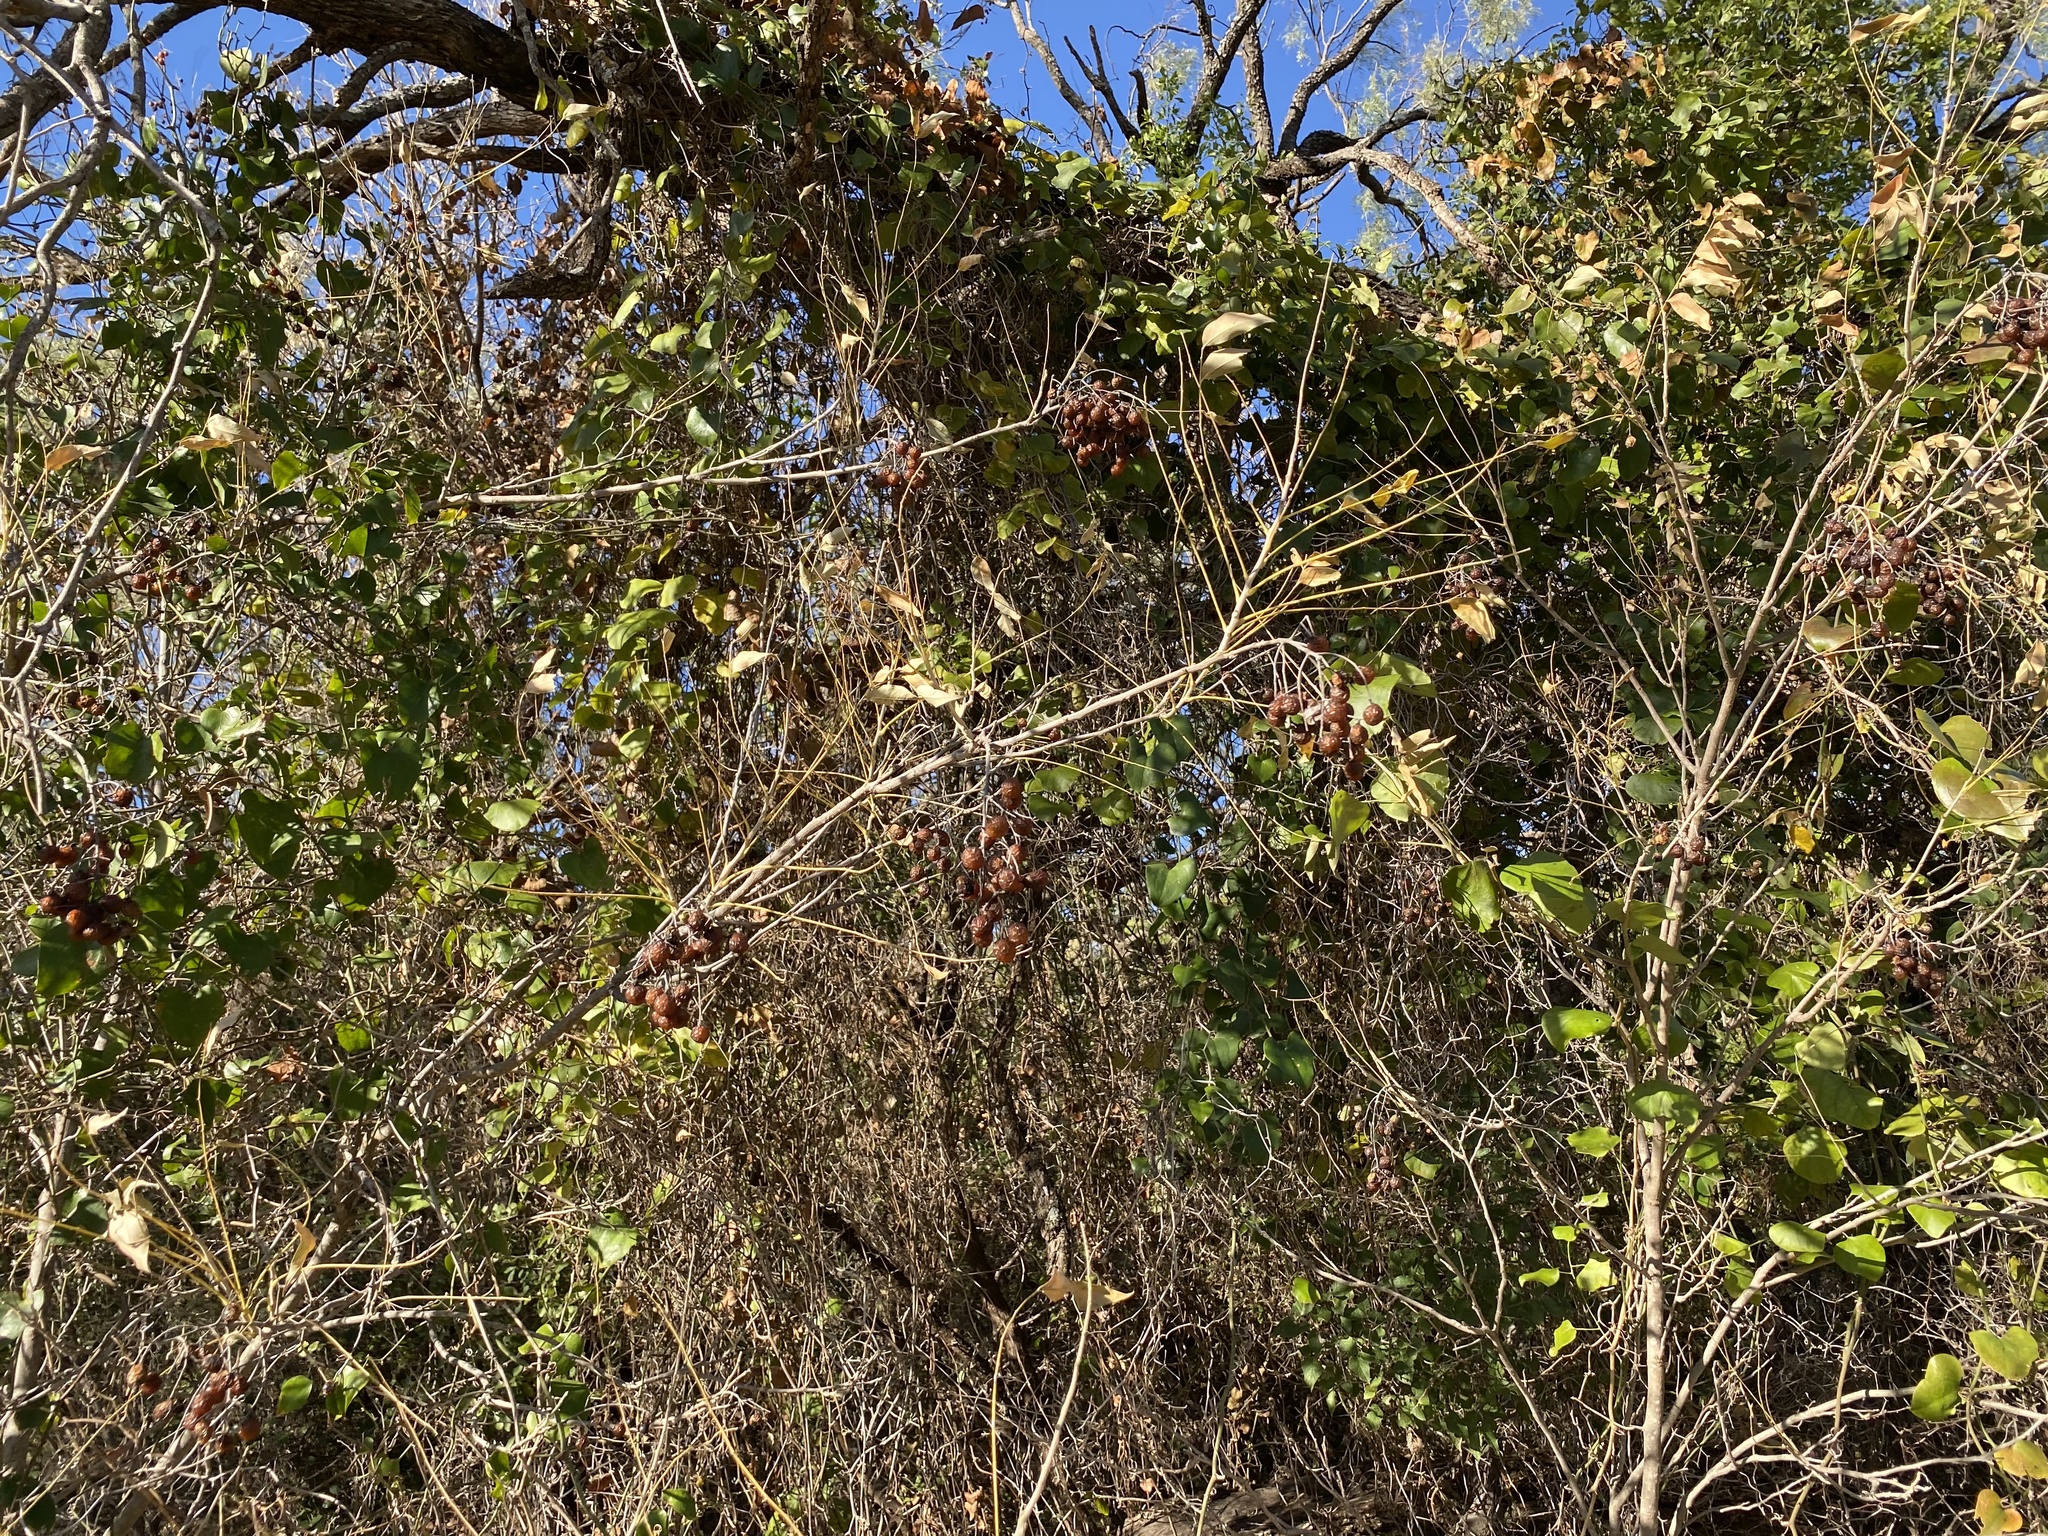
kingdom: Plantae
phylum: Tracheophyta
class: Magnoliopsida
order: Sapindales
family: Sapindaceae
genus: Sapindus
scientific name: Sapindus drummondii
